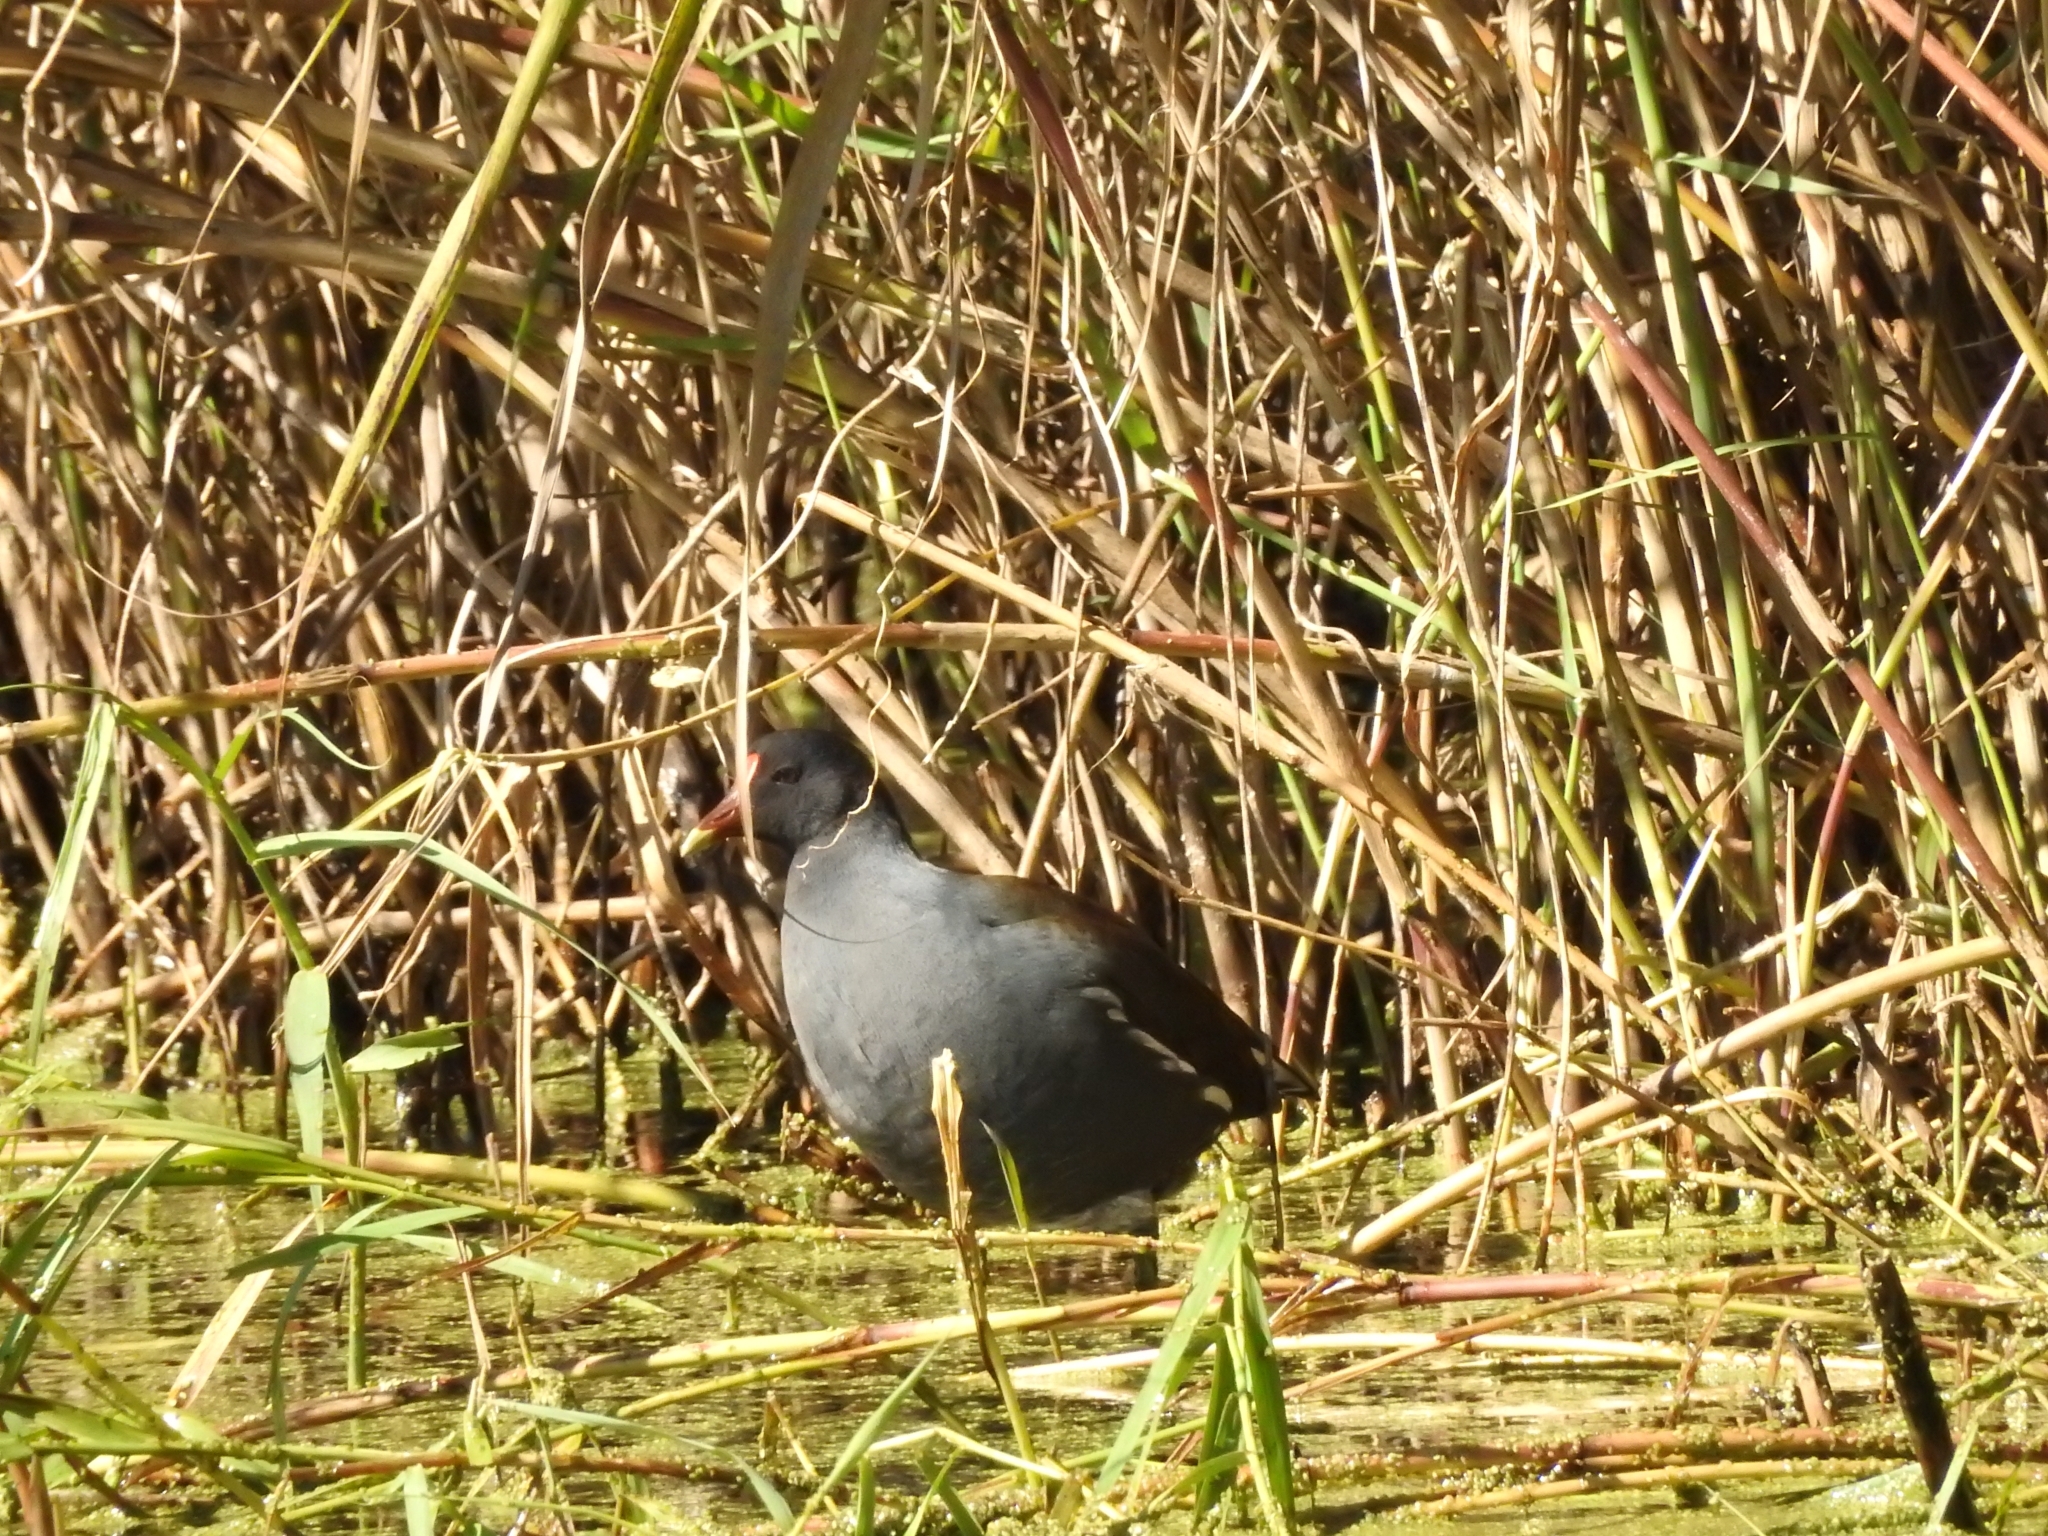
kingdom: Animalia
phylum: Chordata
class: Aves
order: Gruiformes
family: Rallidae
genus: Gallinula
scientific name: Gallinula chloropus
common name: Common moorhen
